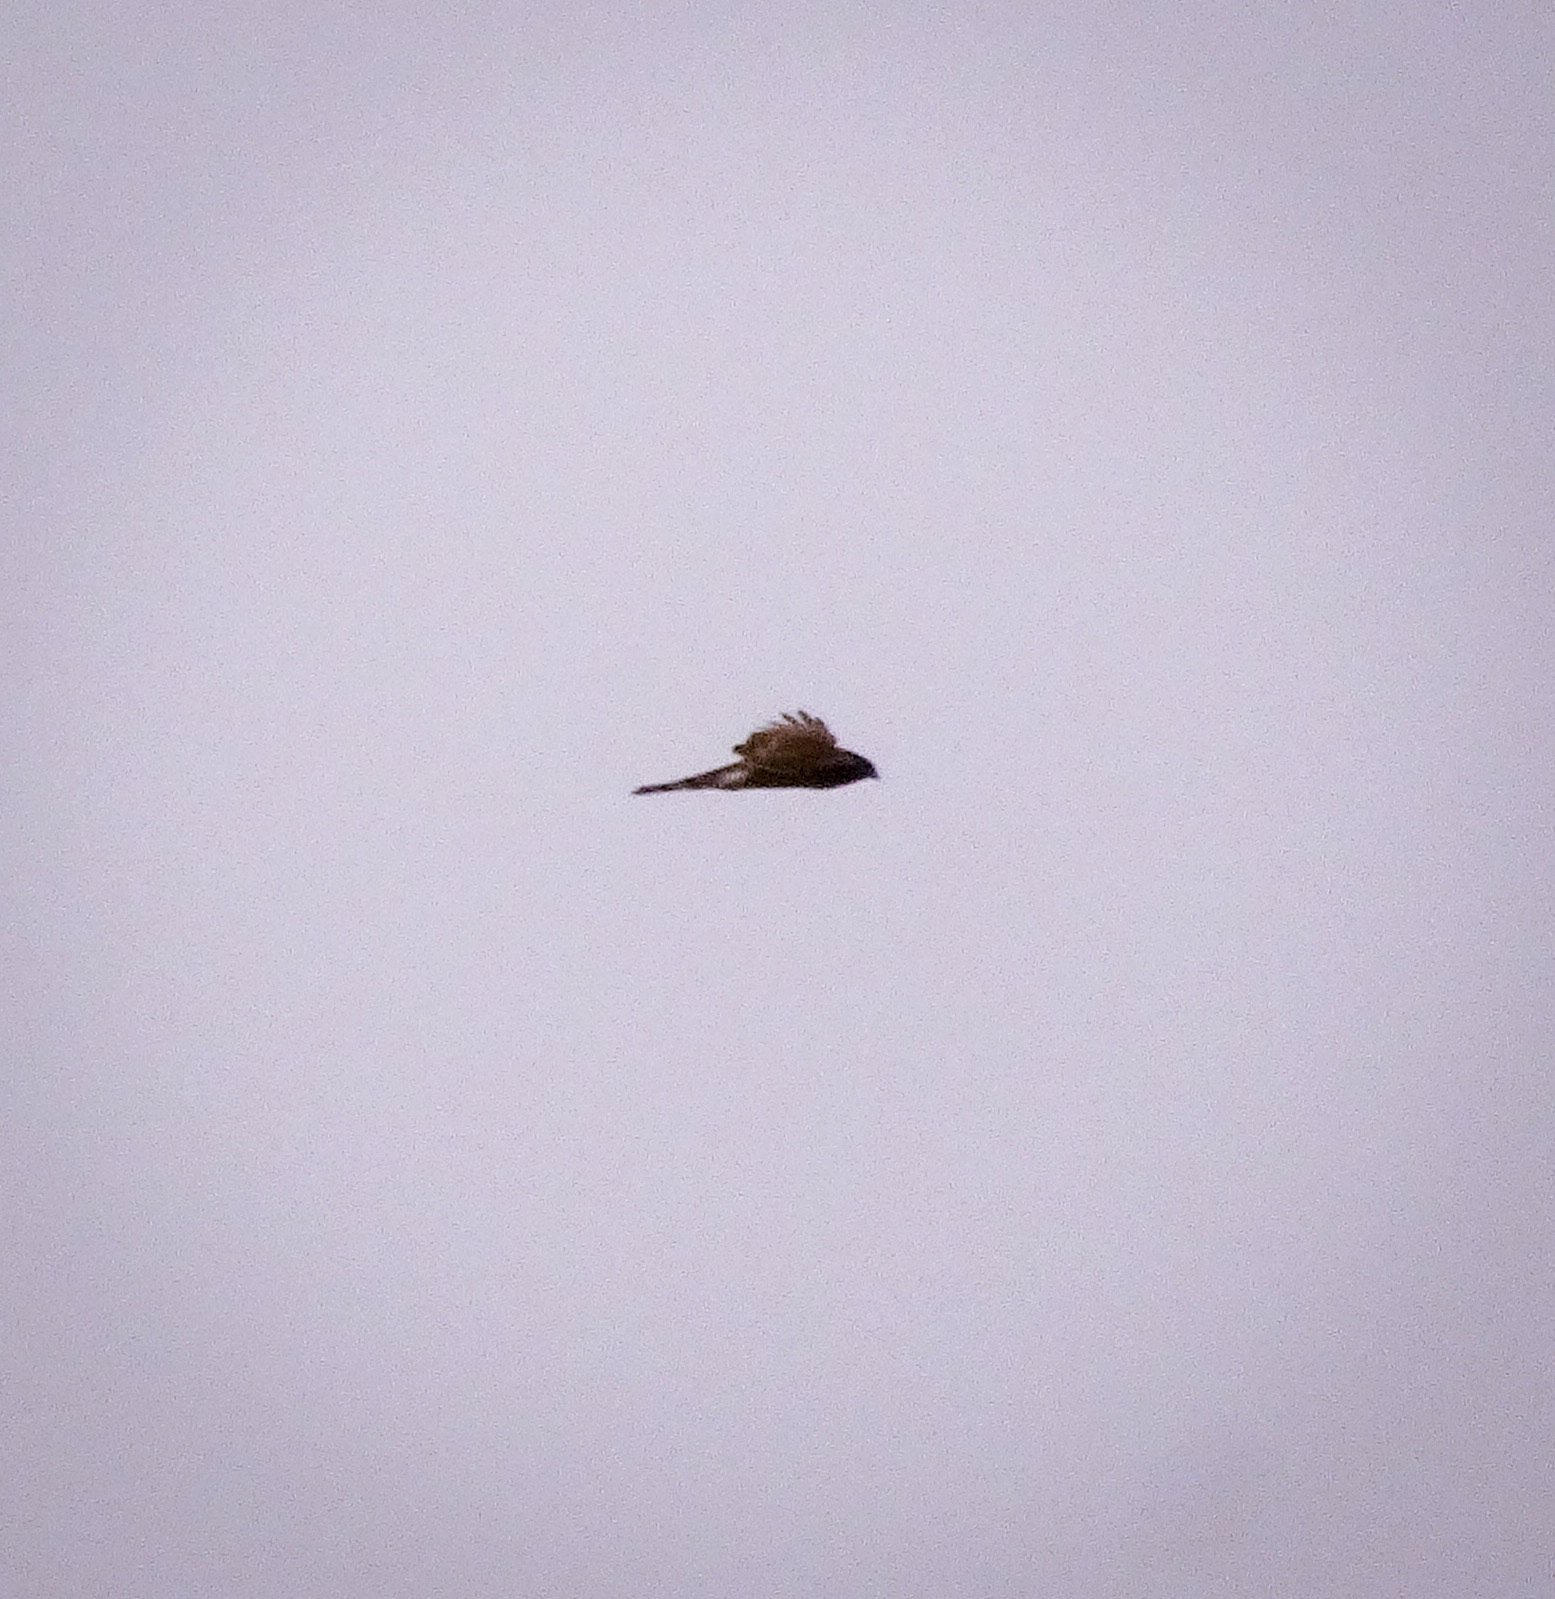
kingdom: Animalia
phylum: Chordata
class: Aves
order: Accipitriformes
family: Accipitridae
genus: Accipiter
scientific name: Accipiter cooperii
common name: Cooper's hawk
